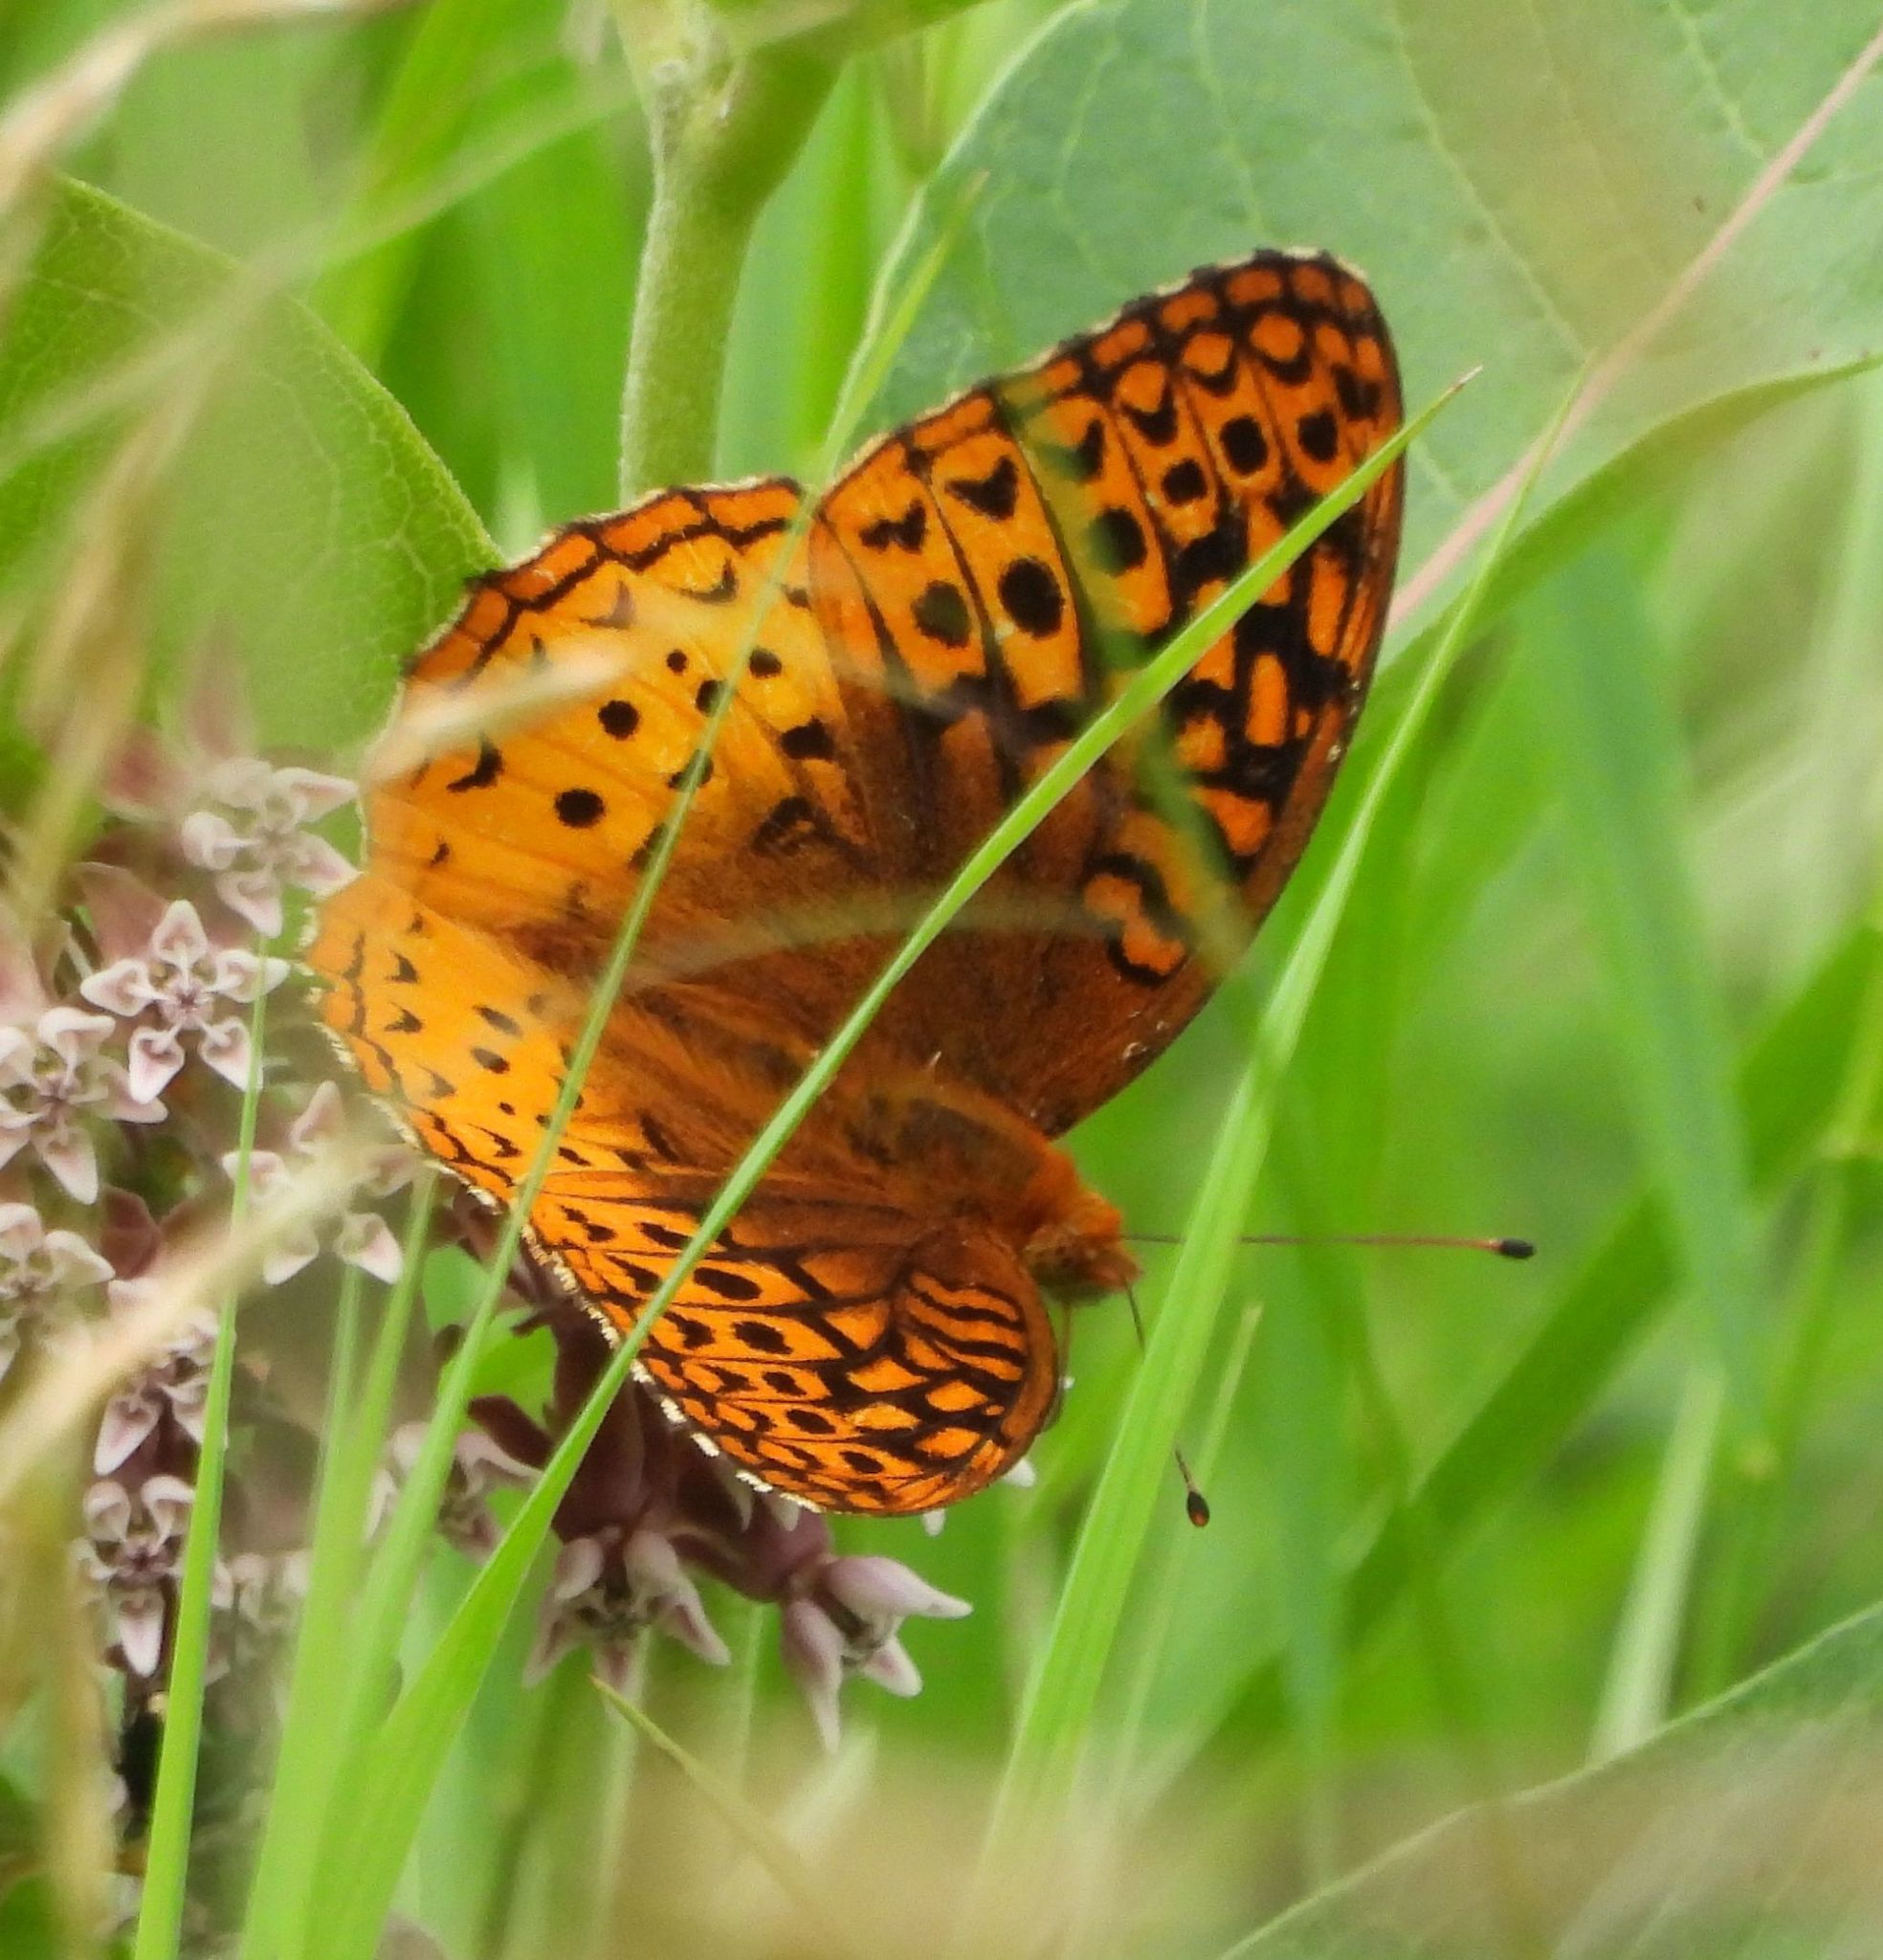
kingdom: Animalia
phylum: Arthropoda
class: Insecta
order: Lepidoptera
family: Nymphalidae
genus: Speyeria
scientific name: Speyeria cybele
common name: Great spangled fritillary
